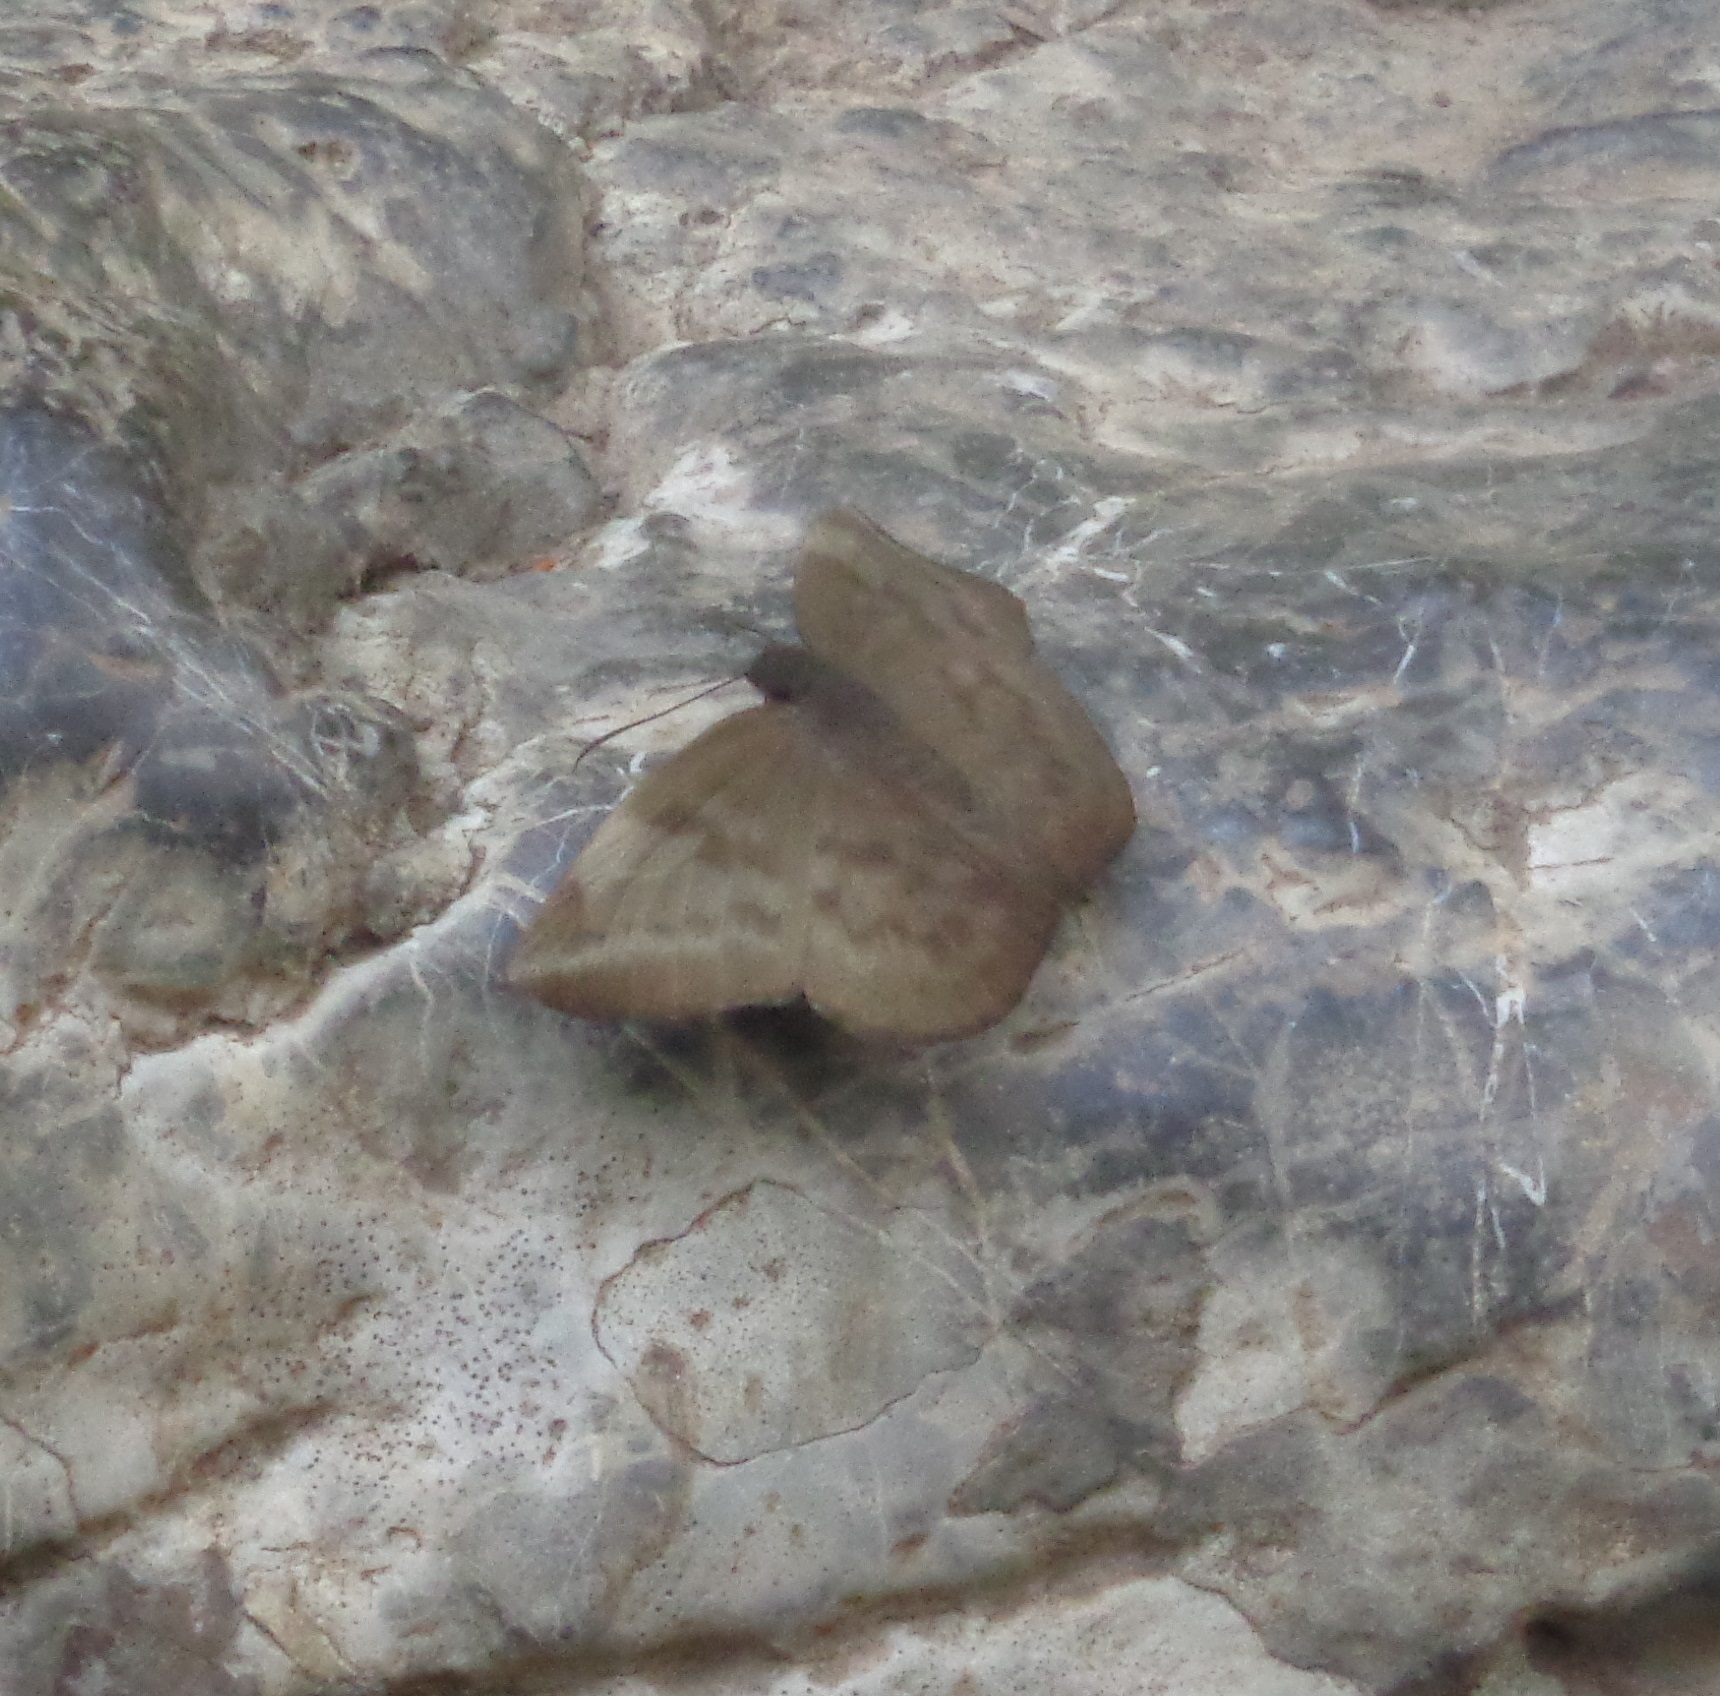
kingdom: Animalia
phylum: Arthropoda
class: Insecta
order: Lepidoptera
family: Hesperiidae
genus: Achlyodes
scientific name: Achlyodes pallida
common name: Pale sicklewing
